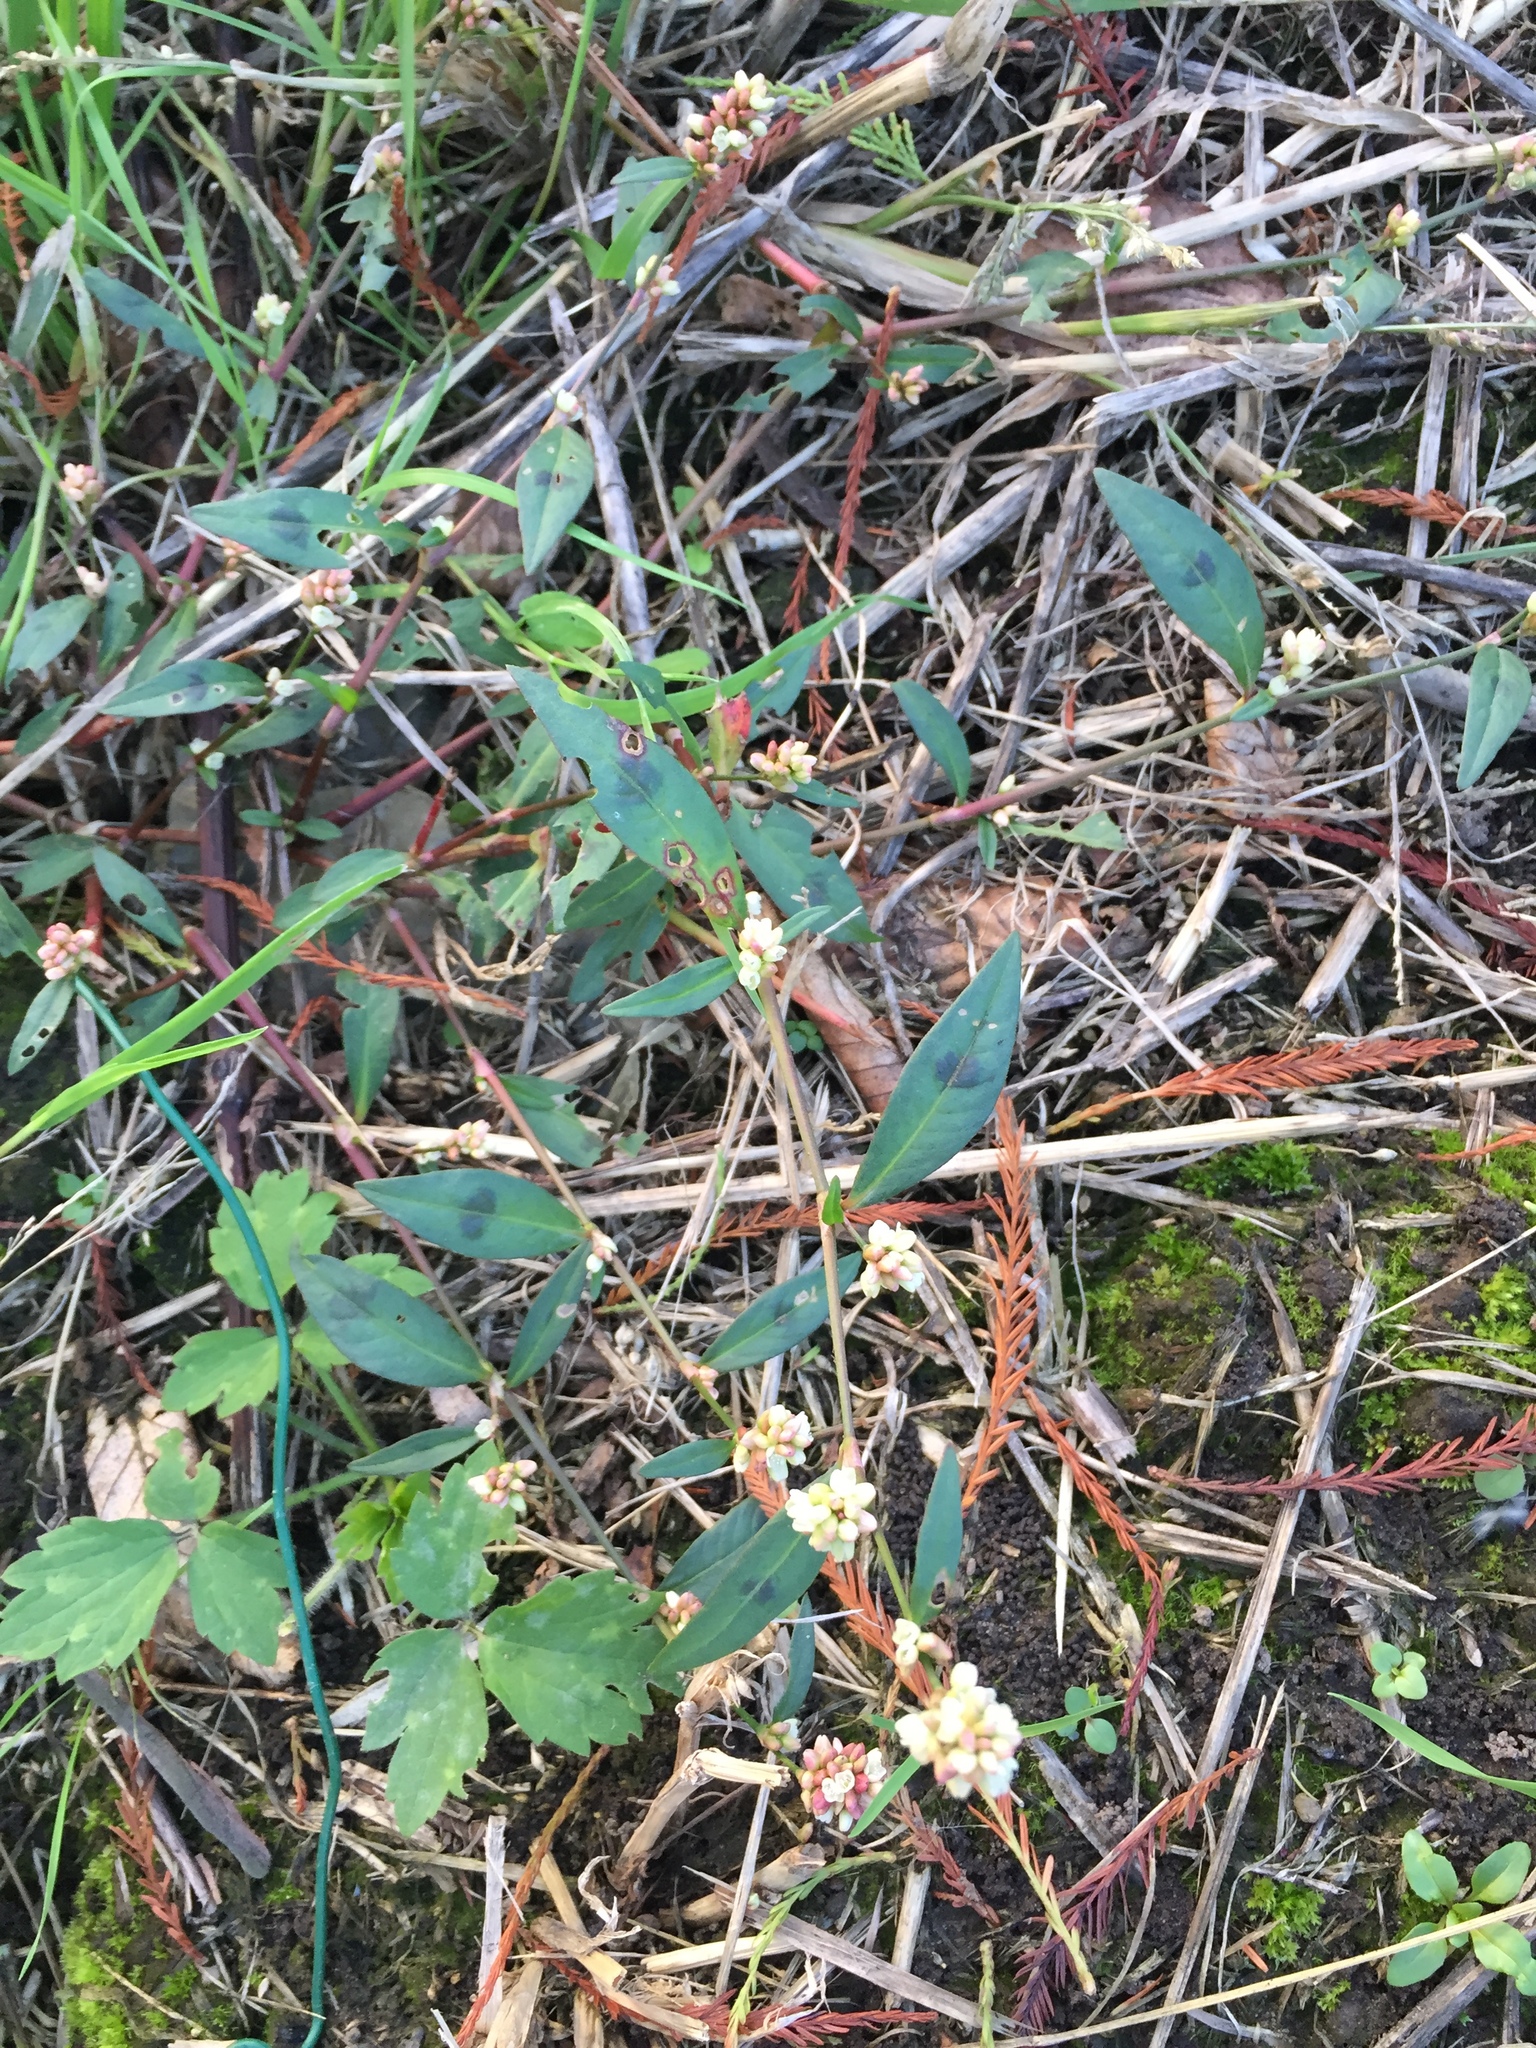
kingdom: Plantae
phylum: Tracheophyta
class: Magnoliopsida
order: Caryophyllales
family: Polygonaceae
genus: Persicaria
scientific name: Persicaria maculosa
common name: Redshank
